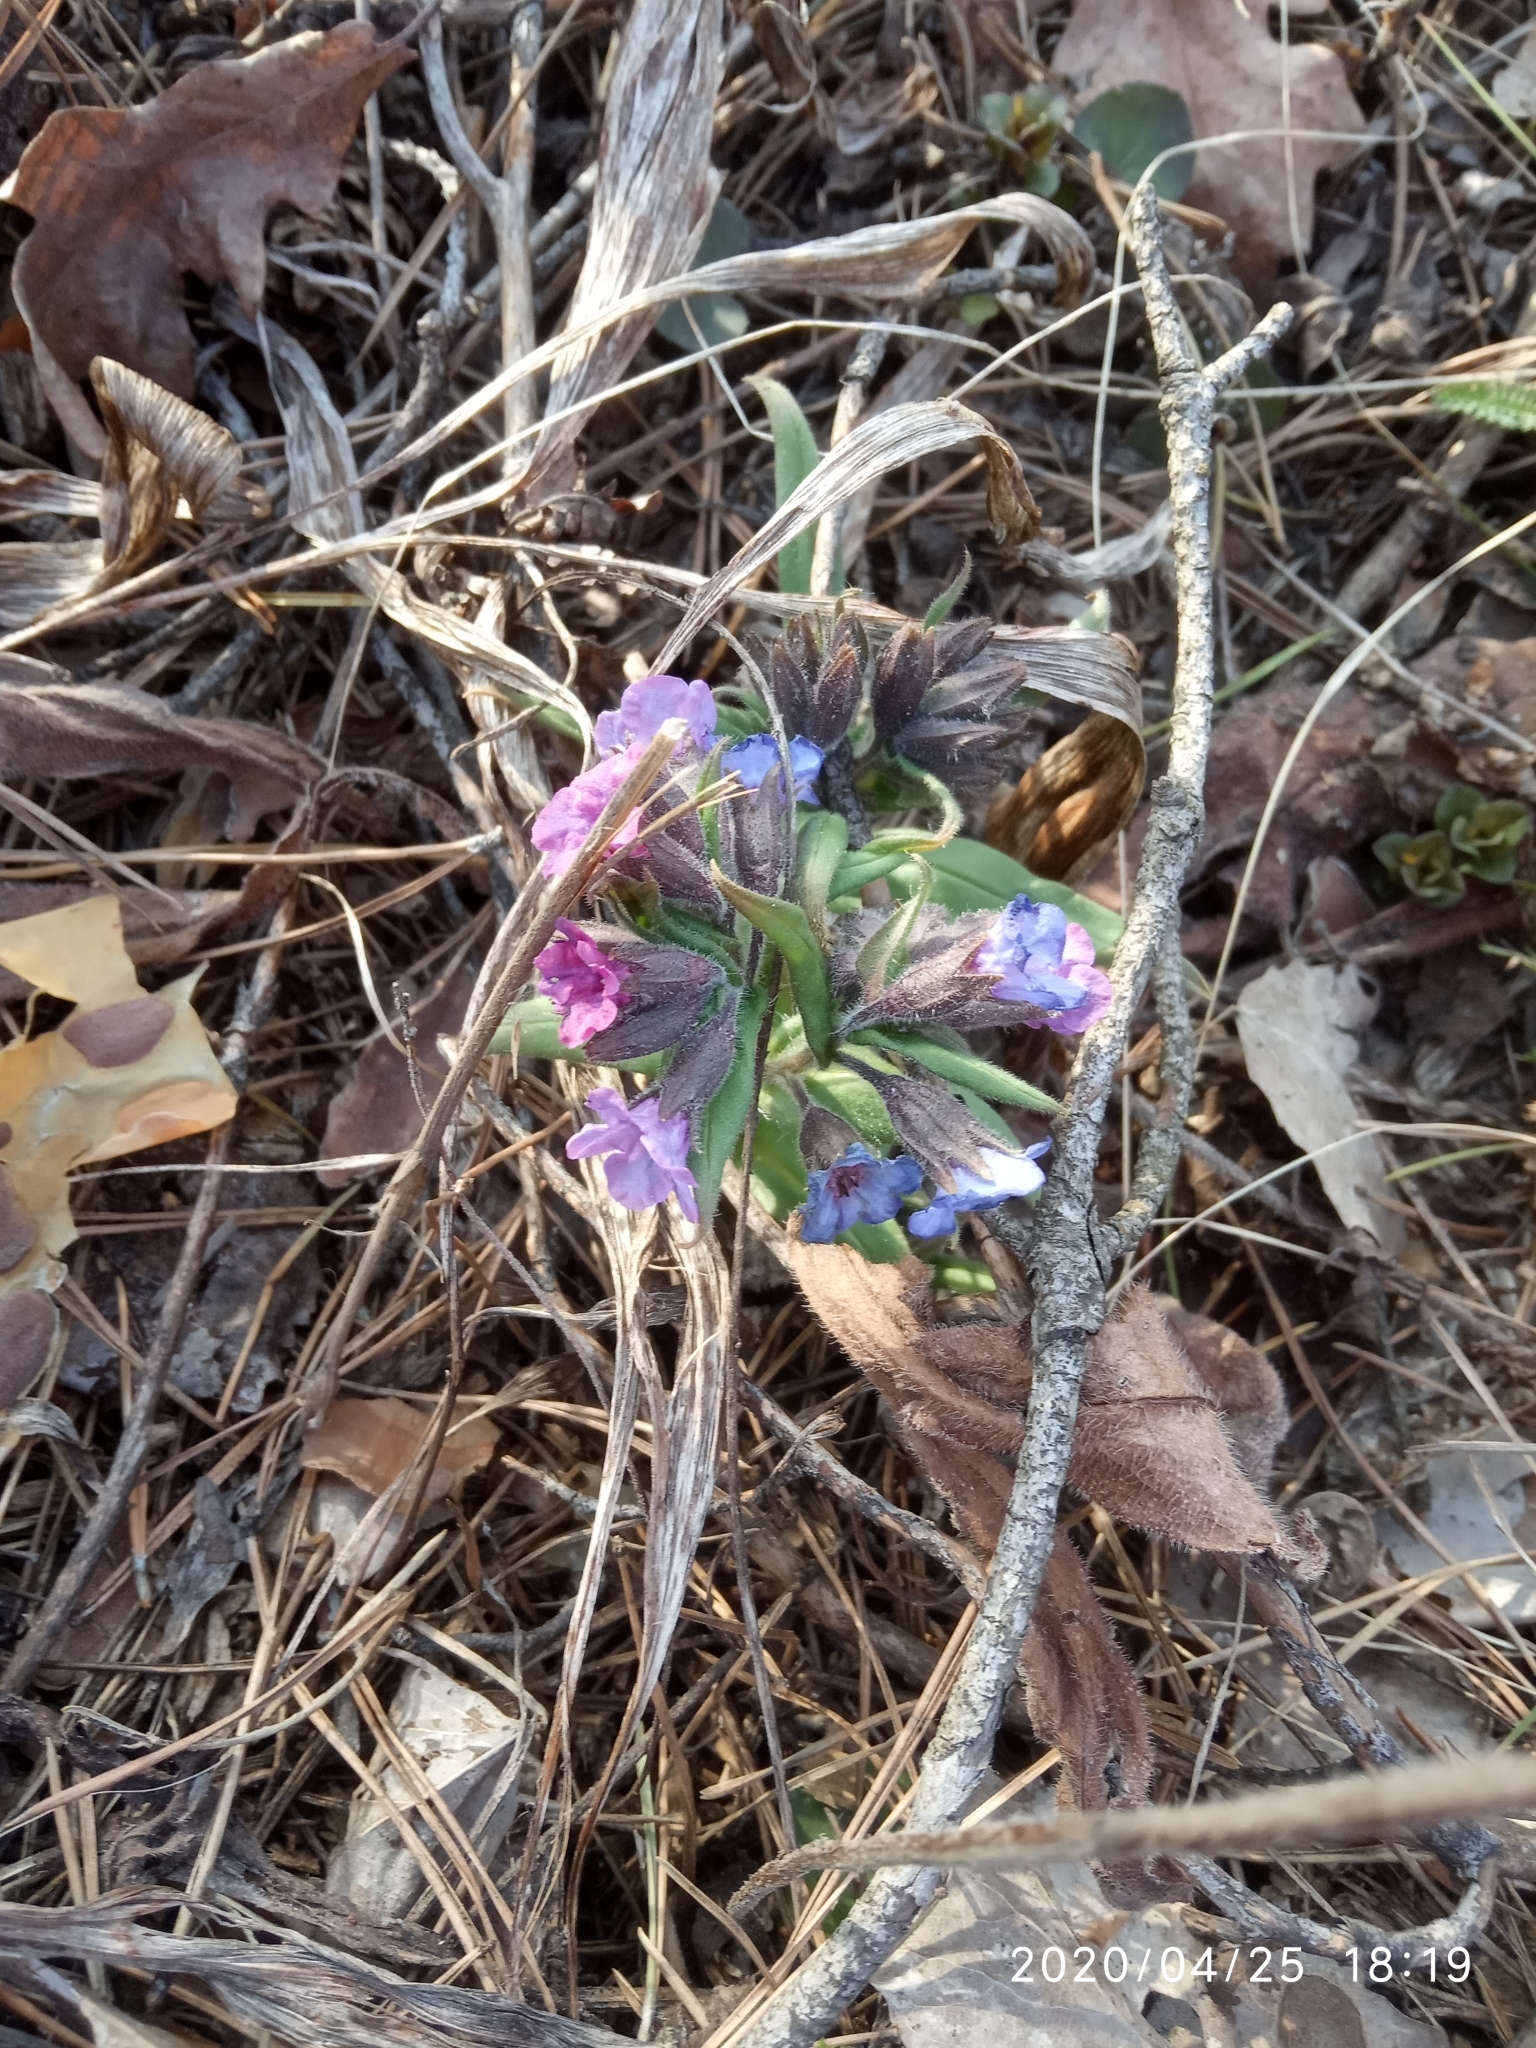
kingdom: Plantae
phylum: Tracheophyta
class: Magnoliopsida
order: Boraginales
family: Boraginaceae
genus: Pulmonaria
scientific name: Pulmonaria mollis
